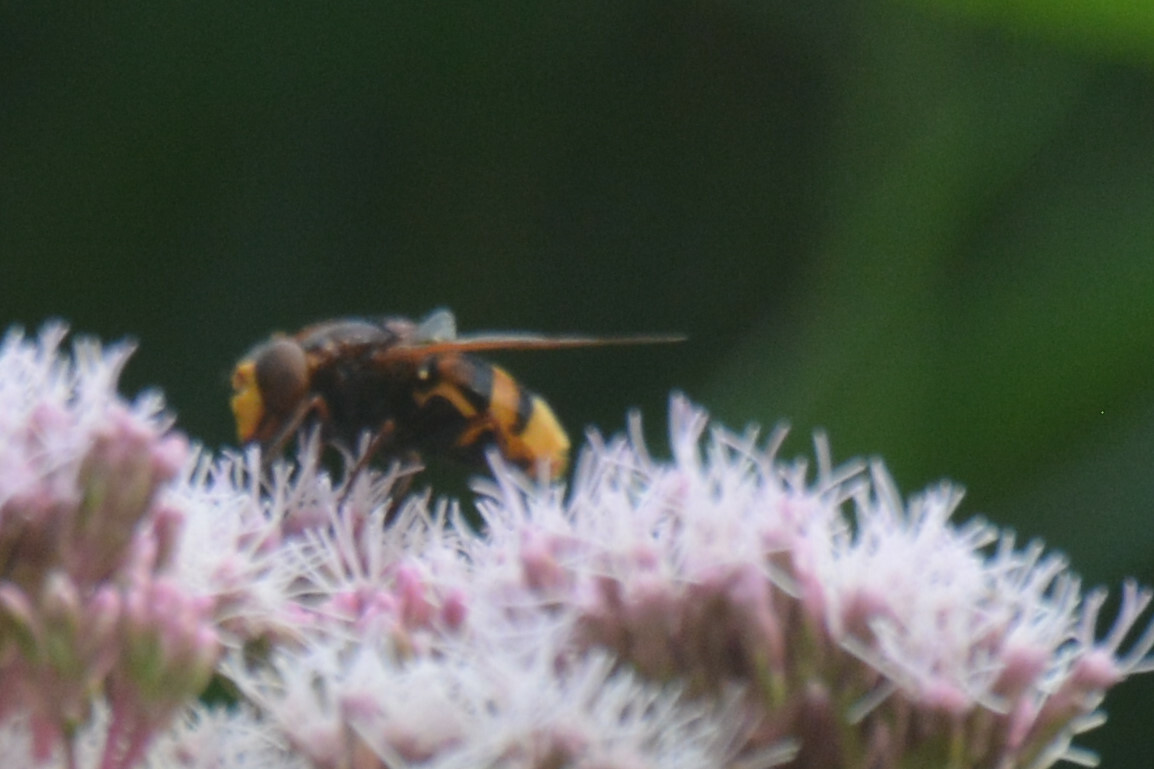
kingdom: Animalia
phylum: Arthropoda
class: Insecta
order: Diptera
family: Syrphidae
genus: Volucella
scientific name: Volucella zonaria
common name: Hornet hoverfly
